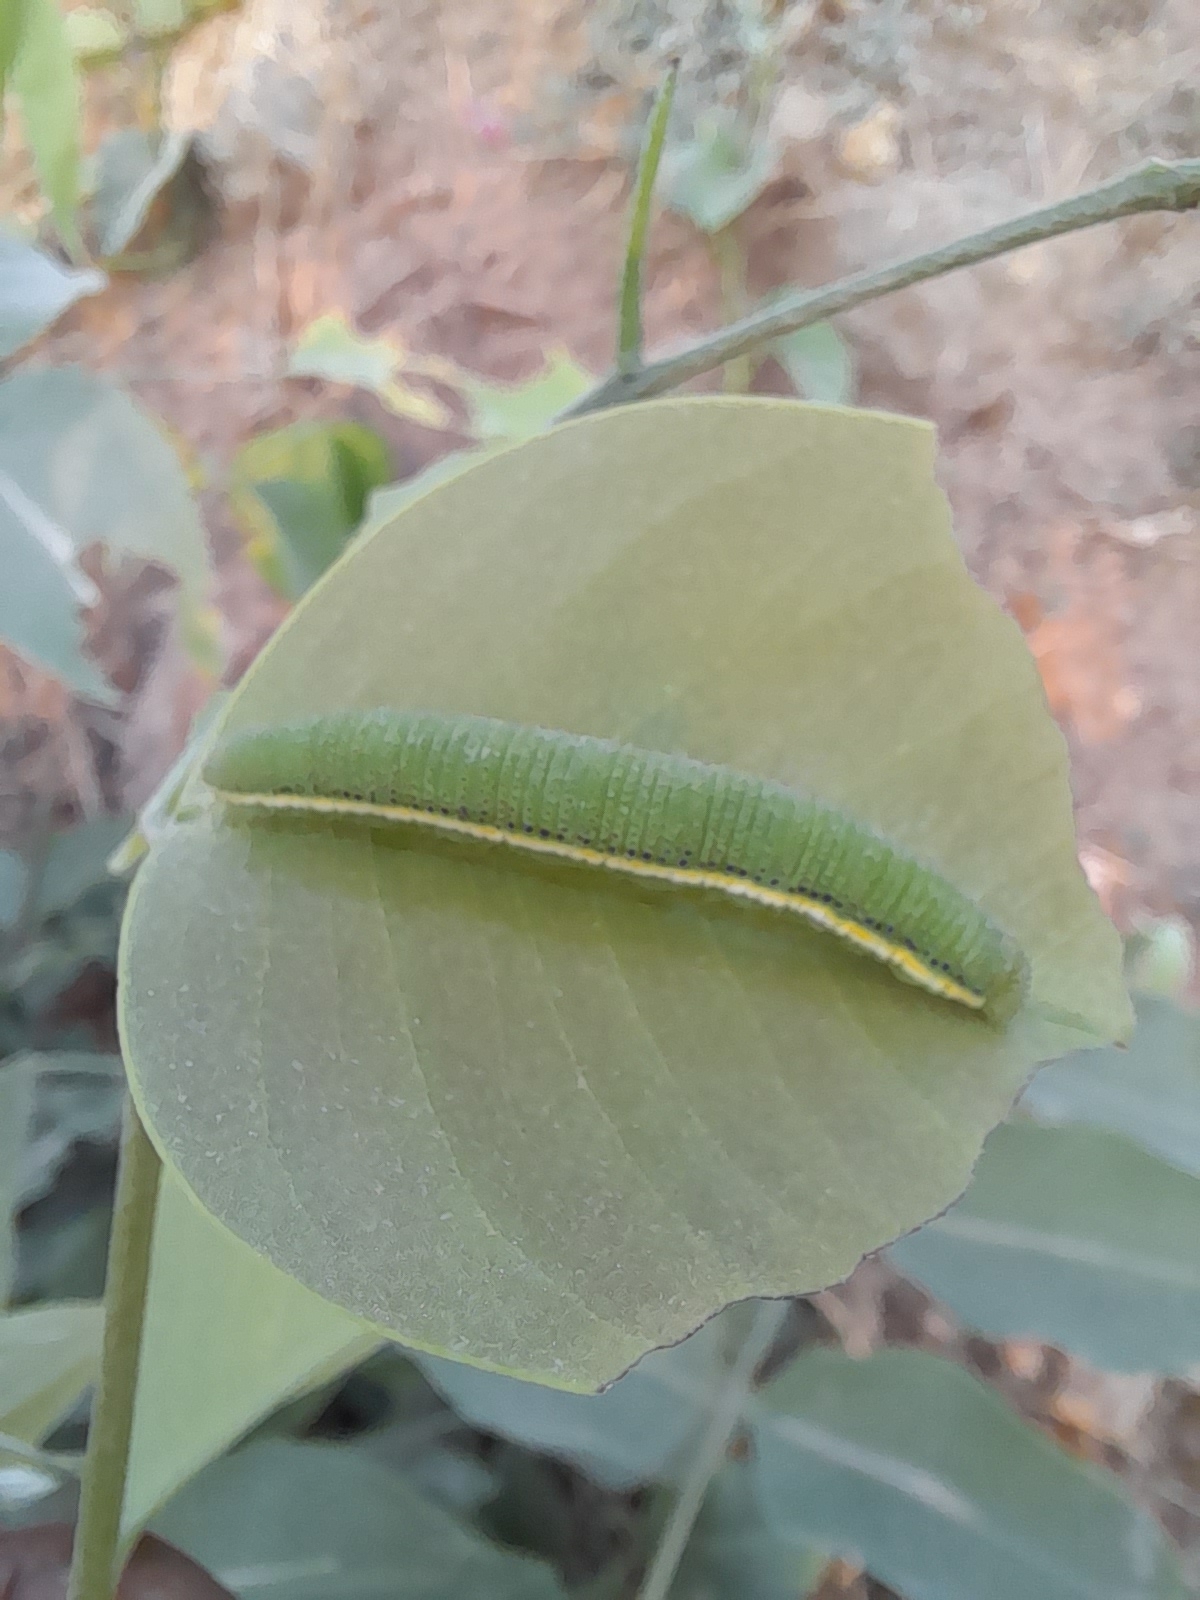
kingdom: Animalia
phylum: Arthropoda
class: Insecta
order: Lepidoptera
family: Pieridae
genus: Catopsilia
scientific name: Catopsilia pomona
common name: Common emigrant
